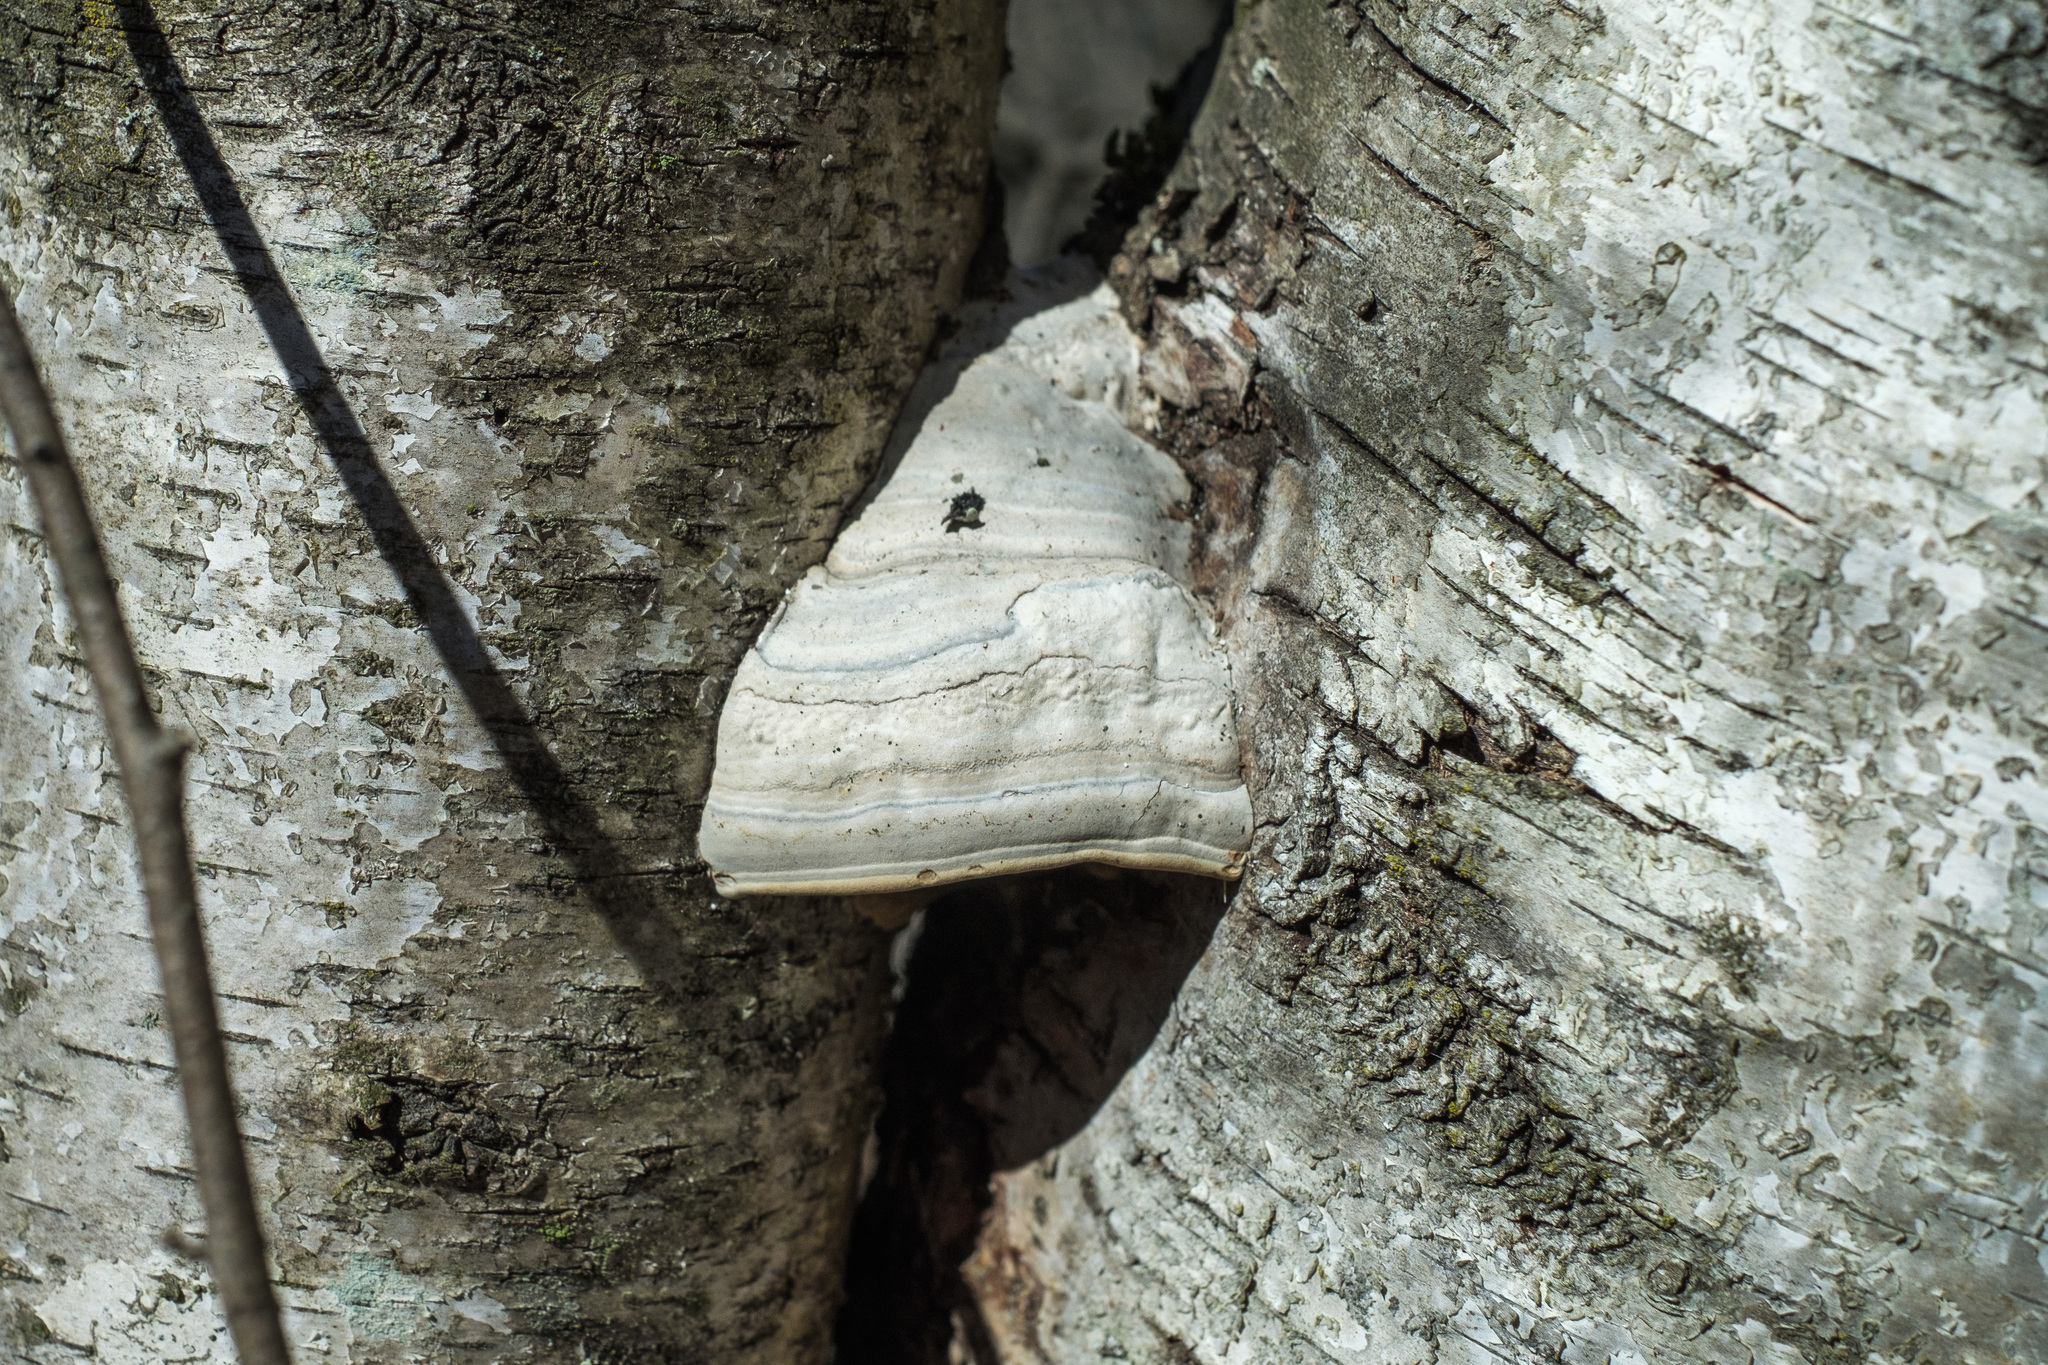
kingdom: Fungi
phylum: Basidiomycota
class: Agaricomycetes
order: Polyporales
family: Polyporaceae
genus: Fomes
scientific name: Fomes fomentarius
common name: Hoof fungus
